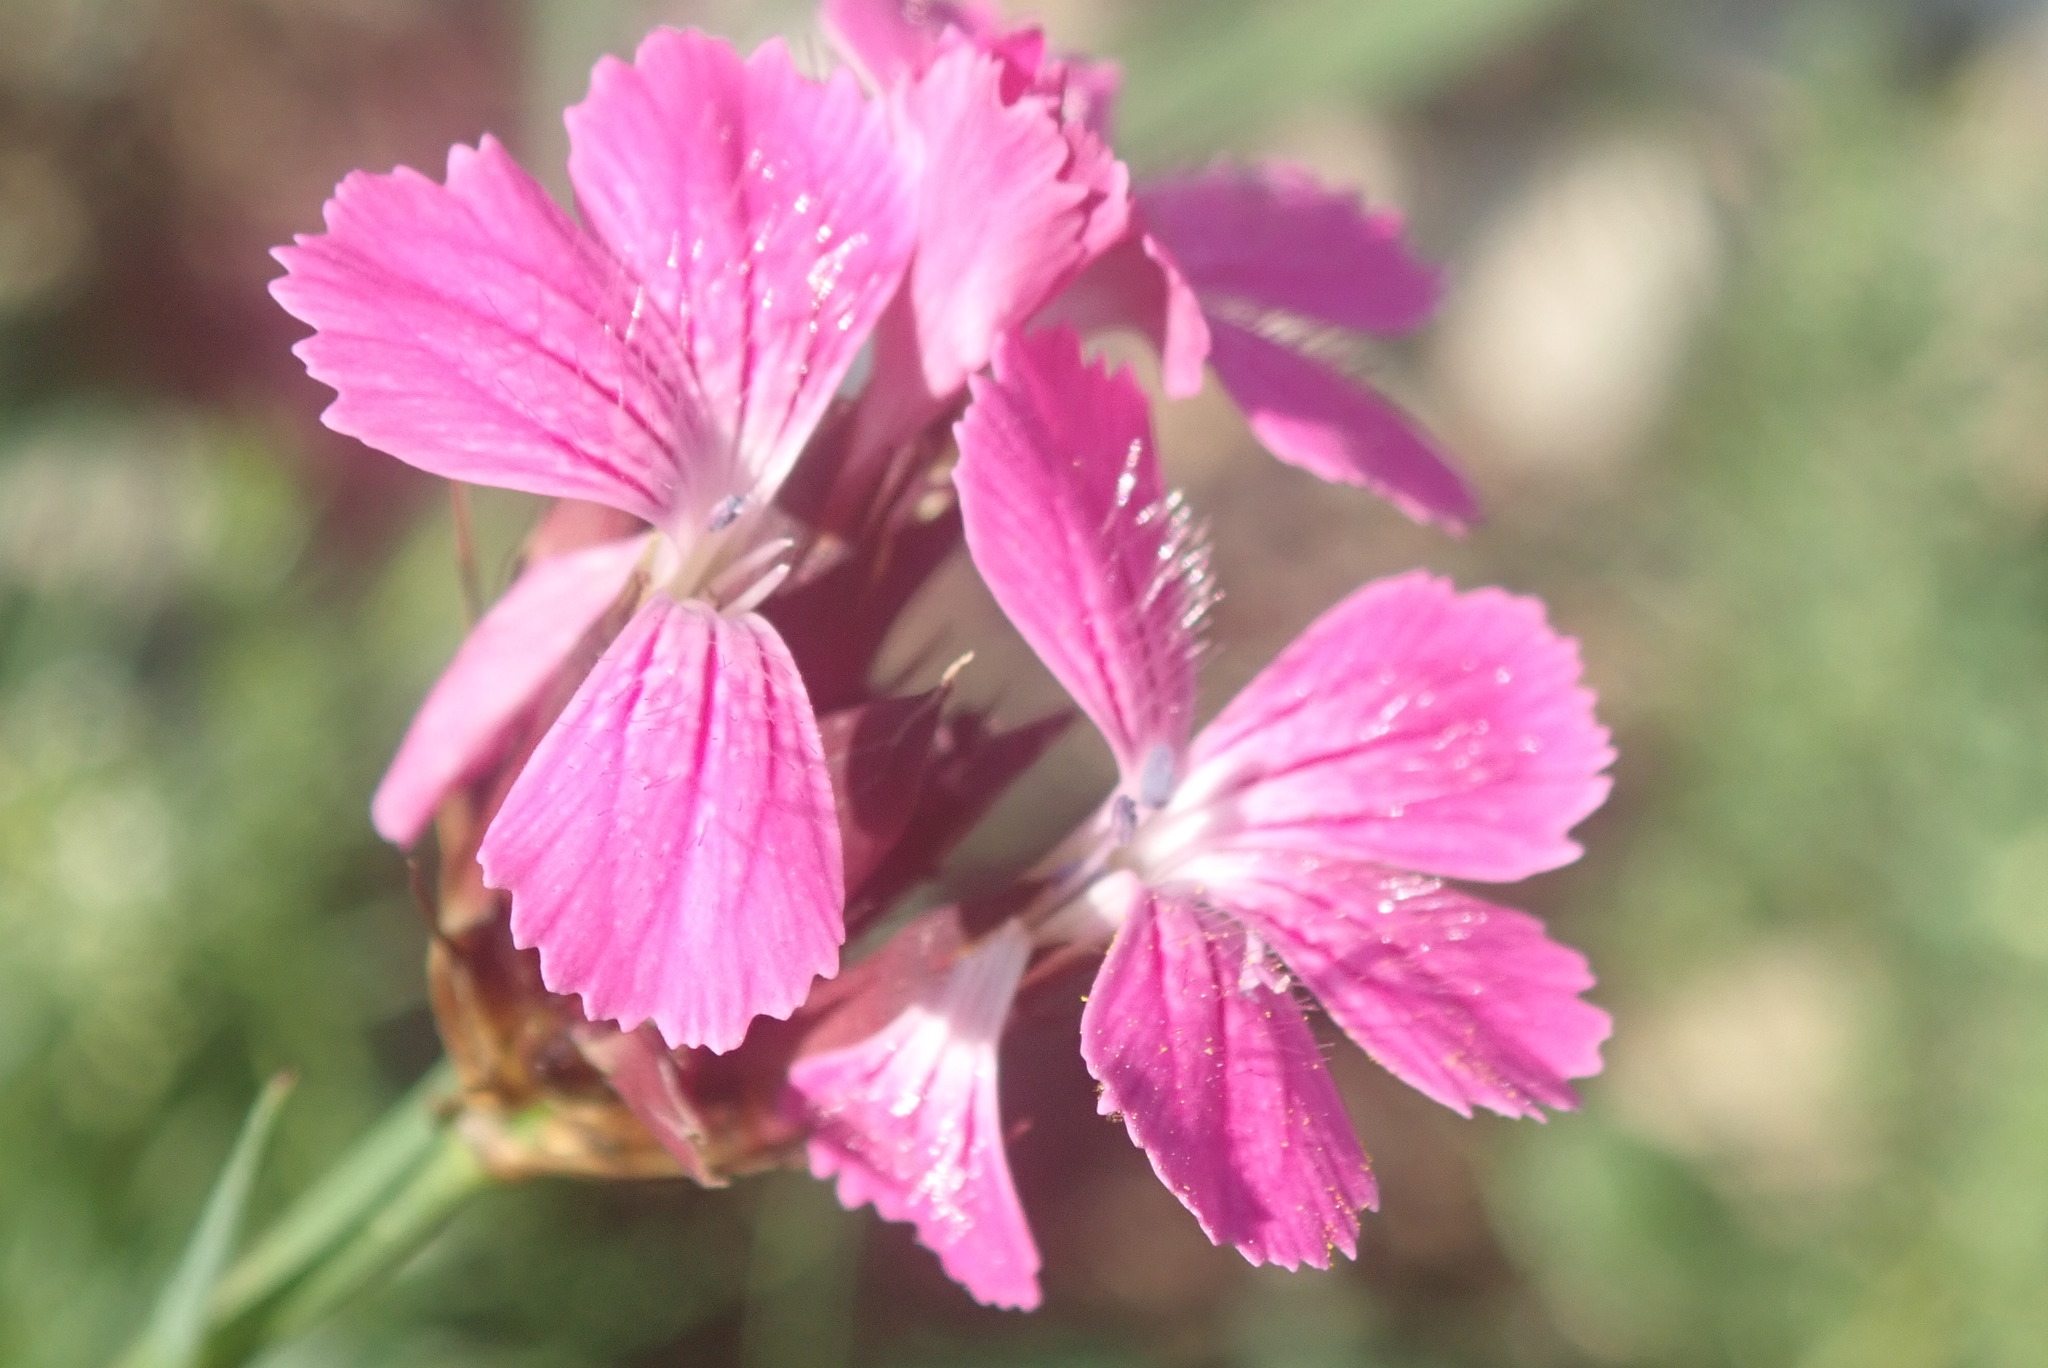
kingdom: Plantae
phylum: Tracheophyta
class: Magnoliopsida
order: Caryophyllales
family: Caryophyllaceae
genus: Dianthus
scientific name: Dianthus carthusianorum
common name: Carthusian pink
